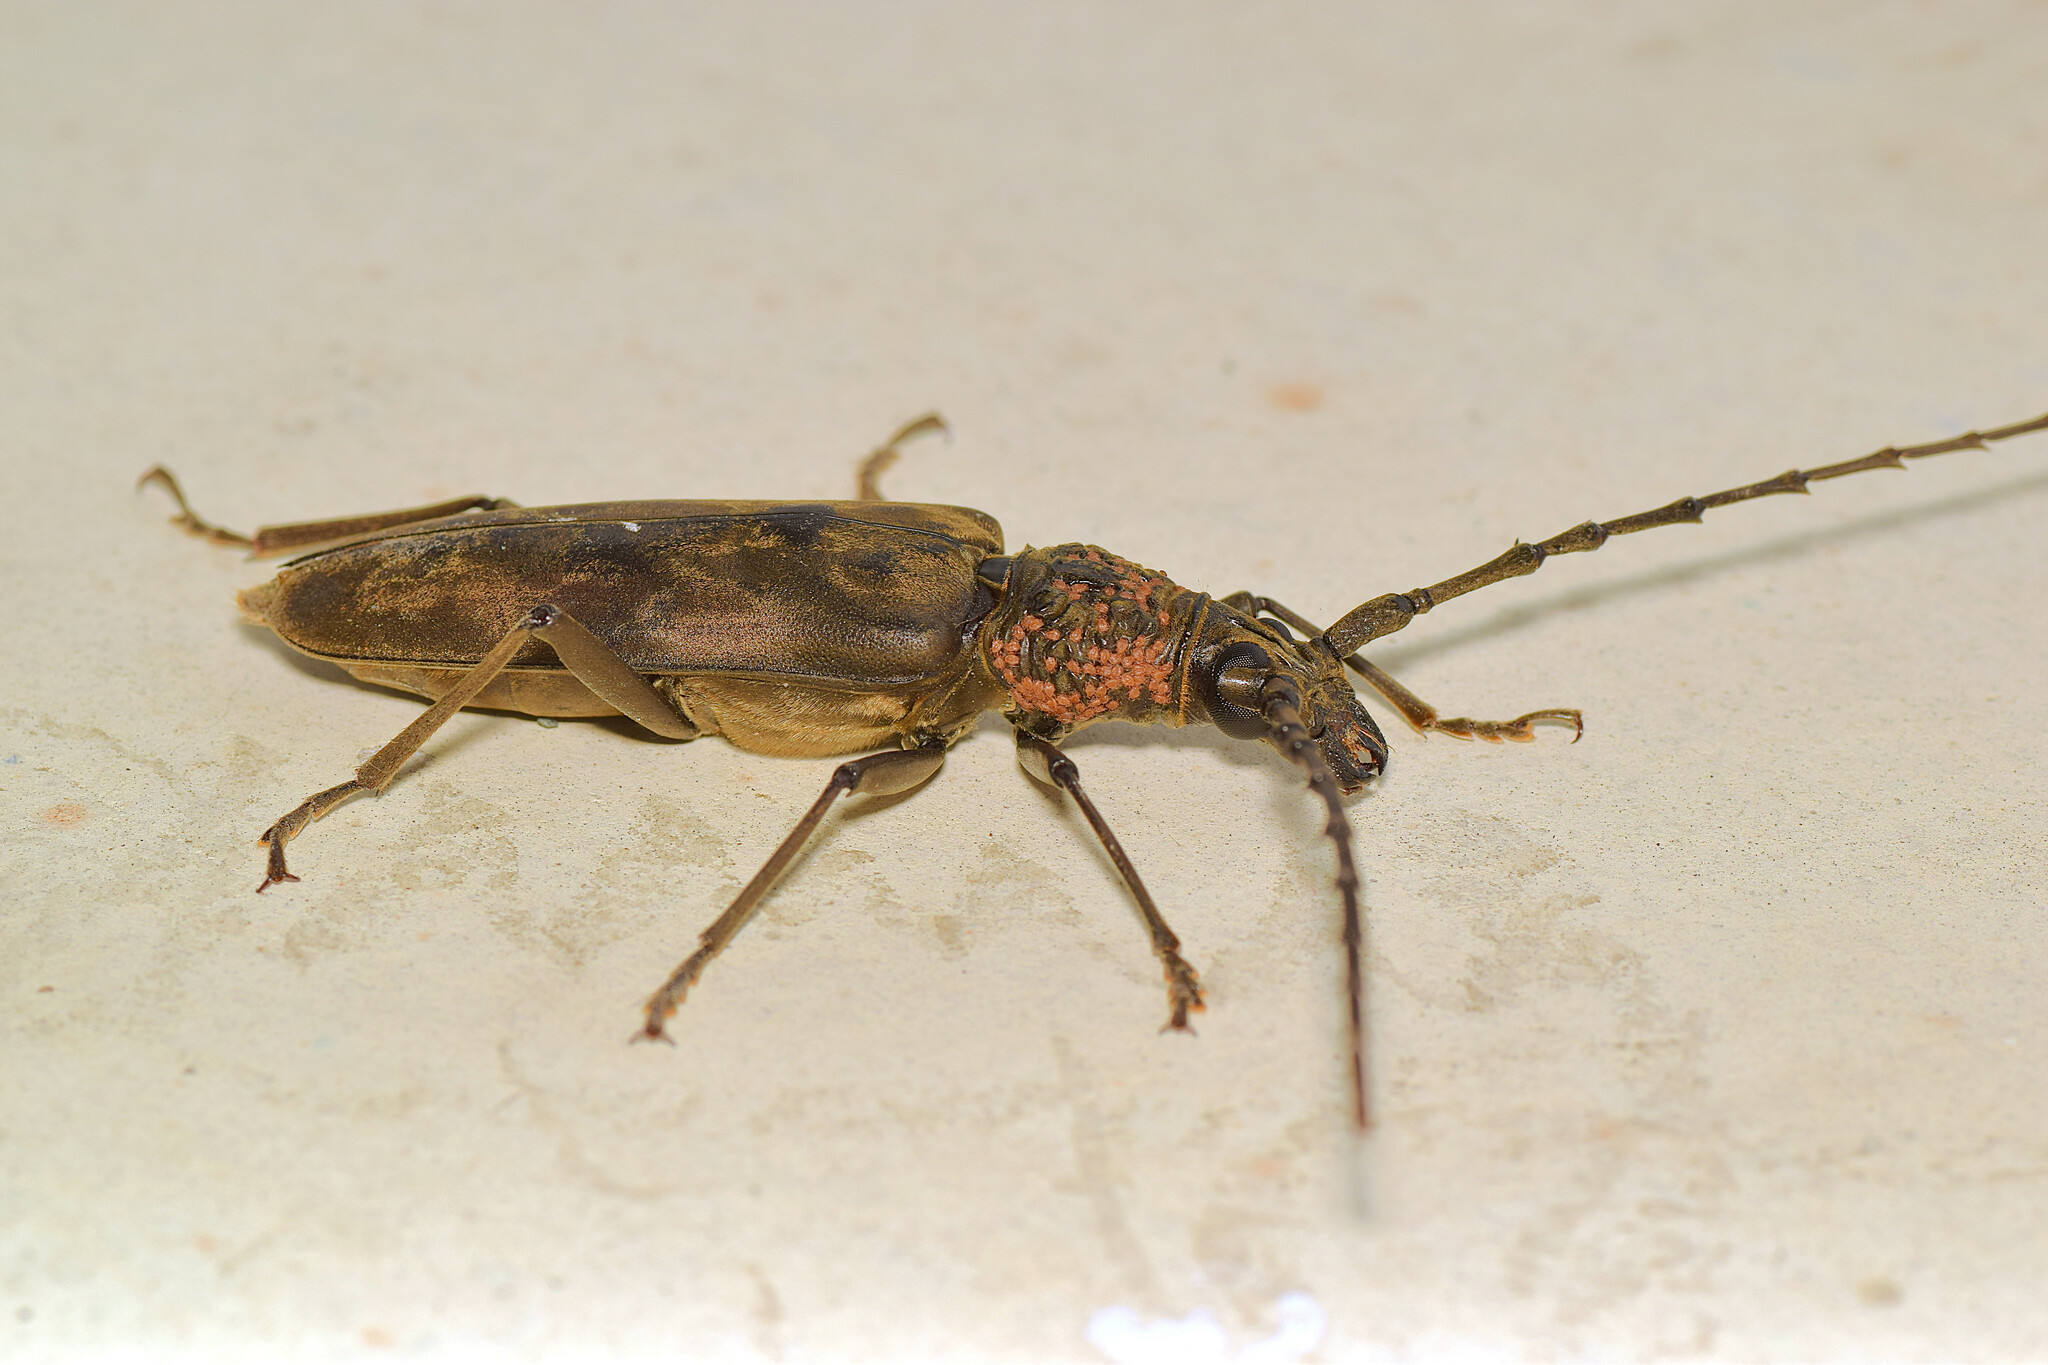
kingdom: Animalia
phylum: Arthropoda
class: Insecta
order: Coleoptera
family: Cerambycidae
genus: Hoplocerambyx
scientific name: Hoplocerambyx spinicornis
